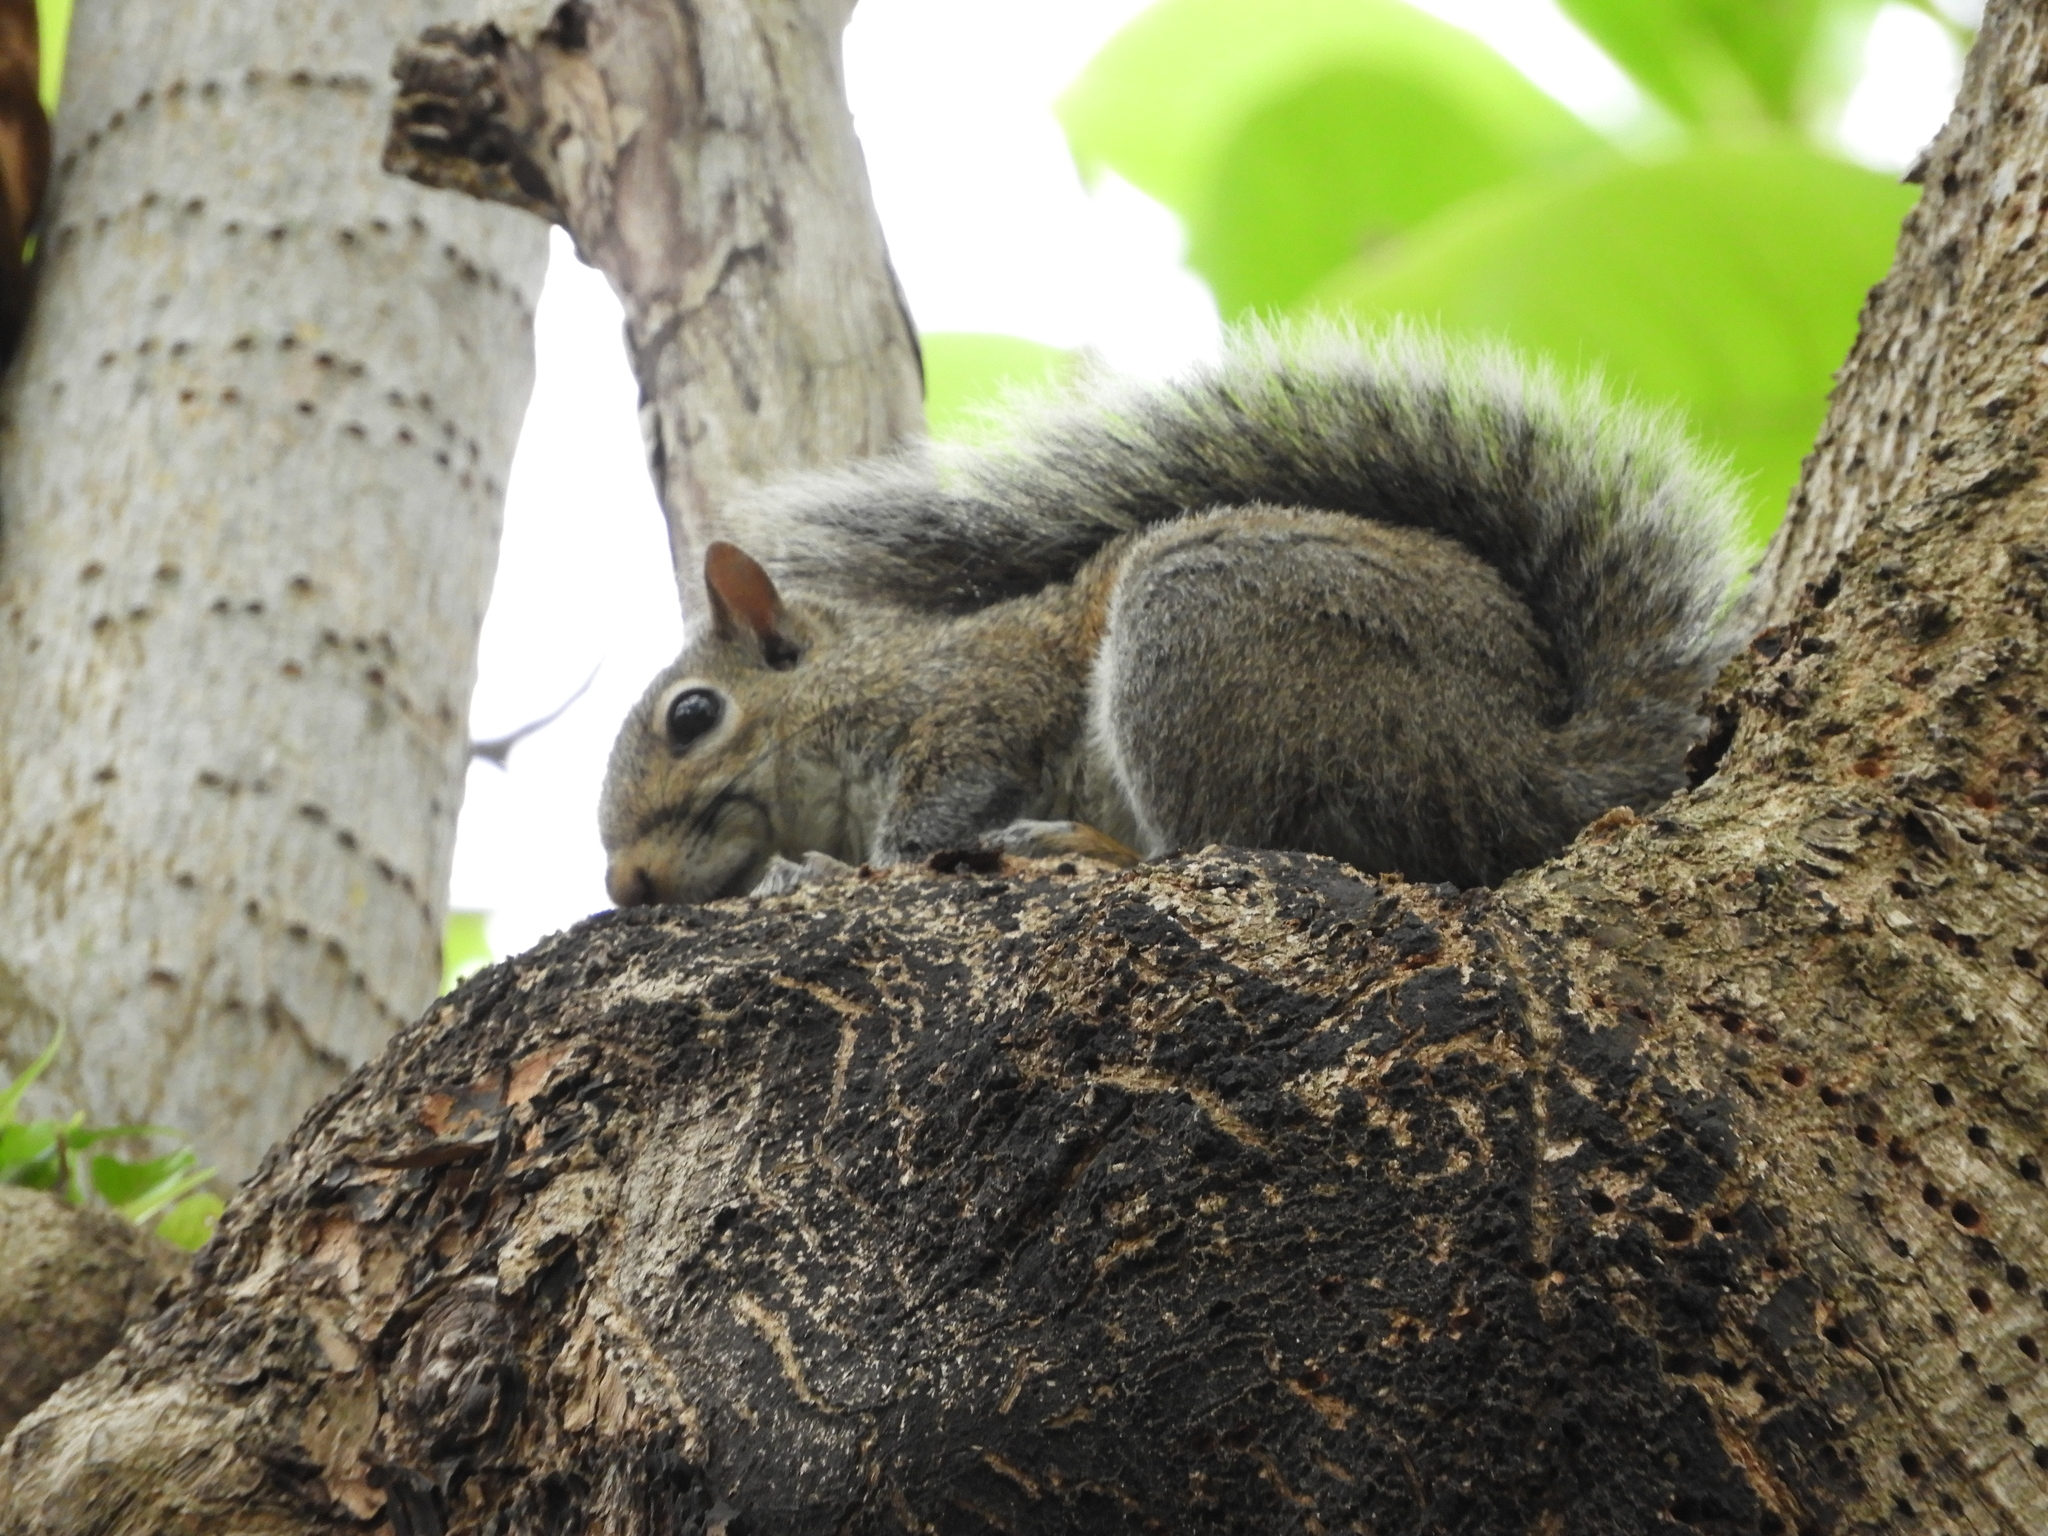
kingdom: Animalia
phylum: Chordata
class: Mammalia
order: Rodentia
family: Sciuridae
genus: Sciurus
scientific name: Sciurus carolinensis
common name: Eastern gray squirrel
